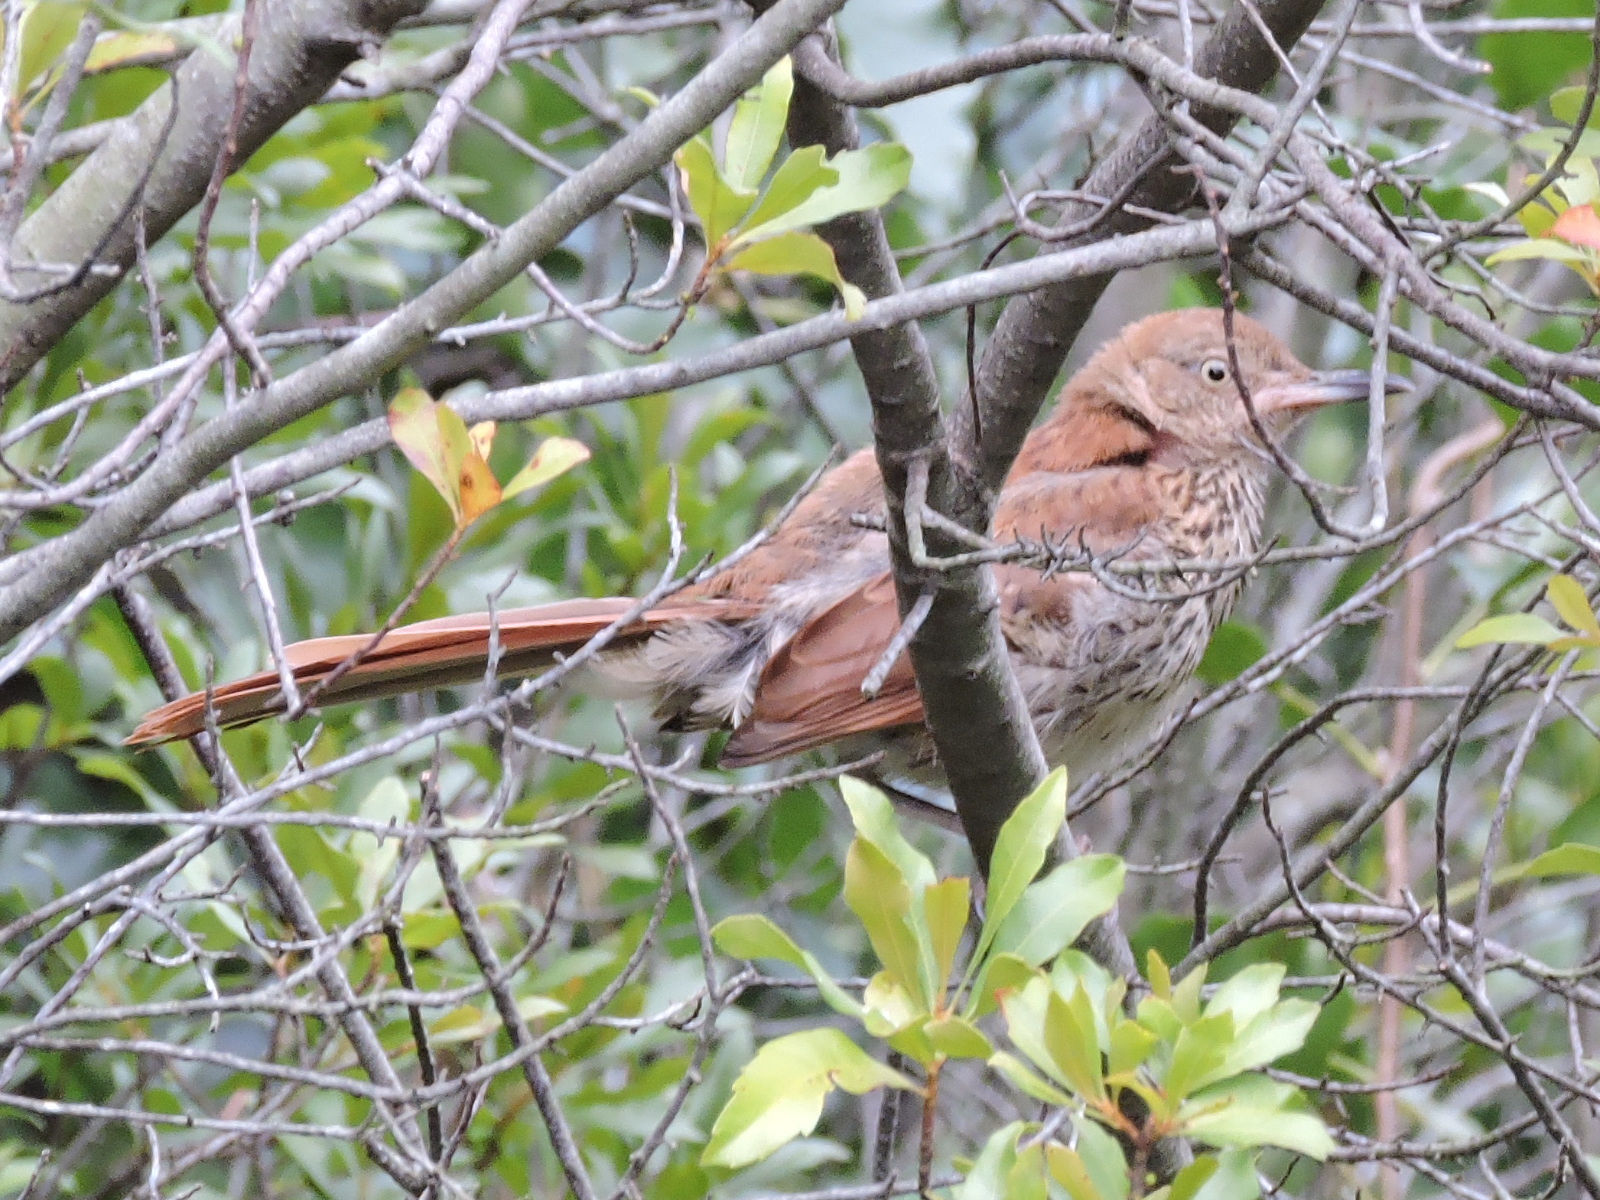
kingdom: Animalia
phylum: Chordata
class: Aves
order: Passeriformes
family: Mimidae
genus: Toxostoma
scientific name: Toxostoma rufum
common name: Brown thrasher
